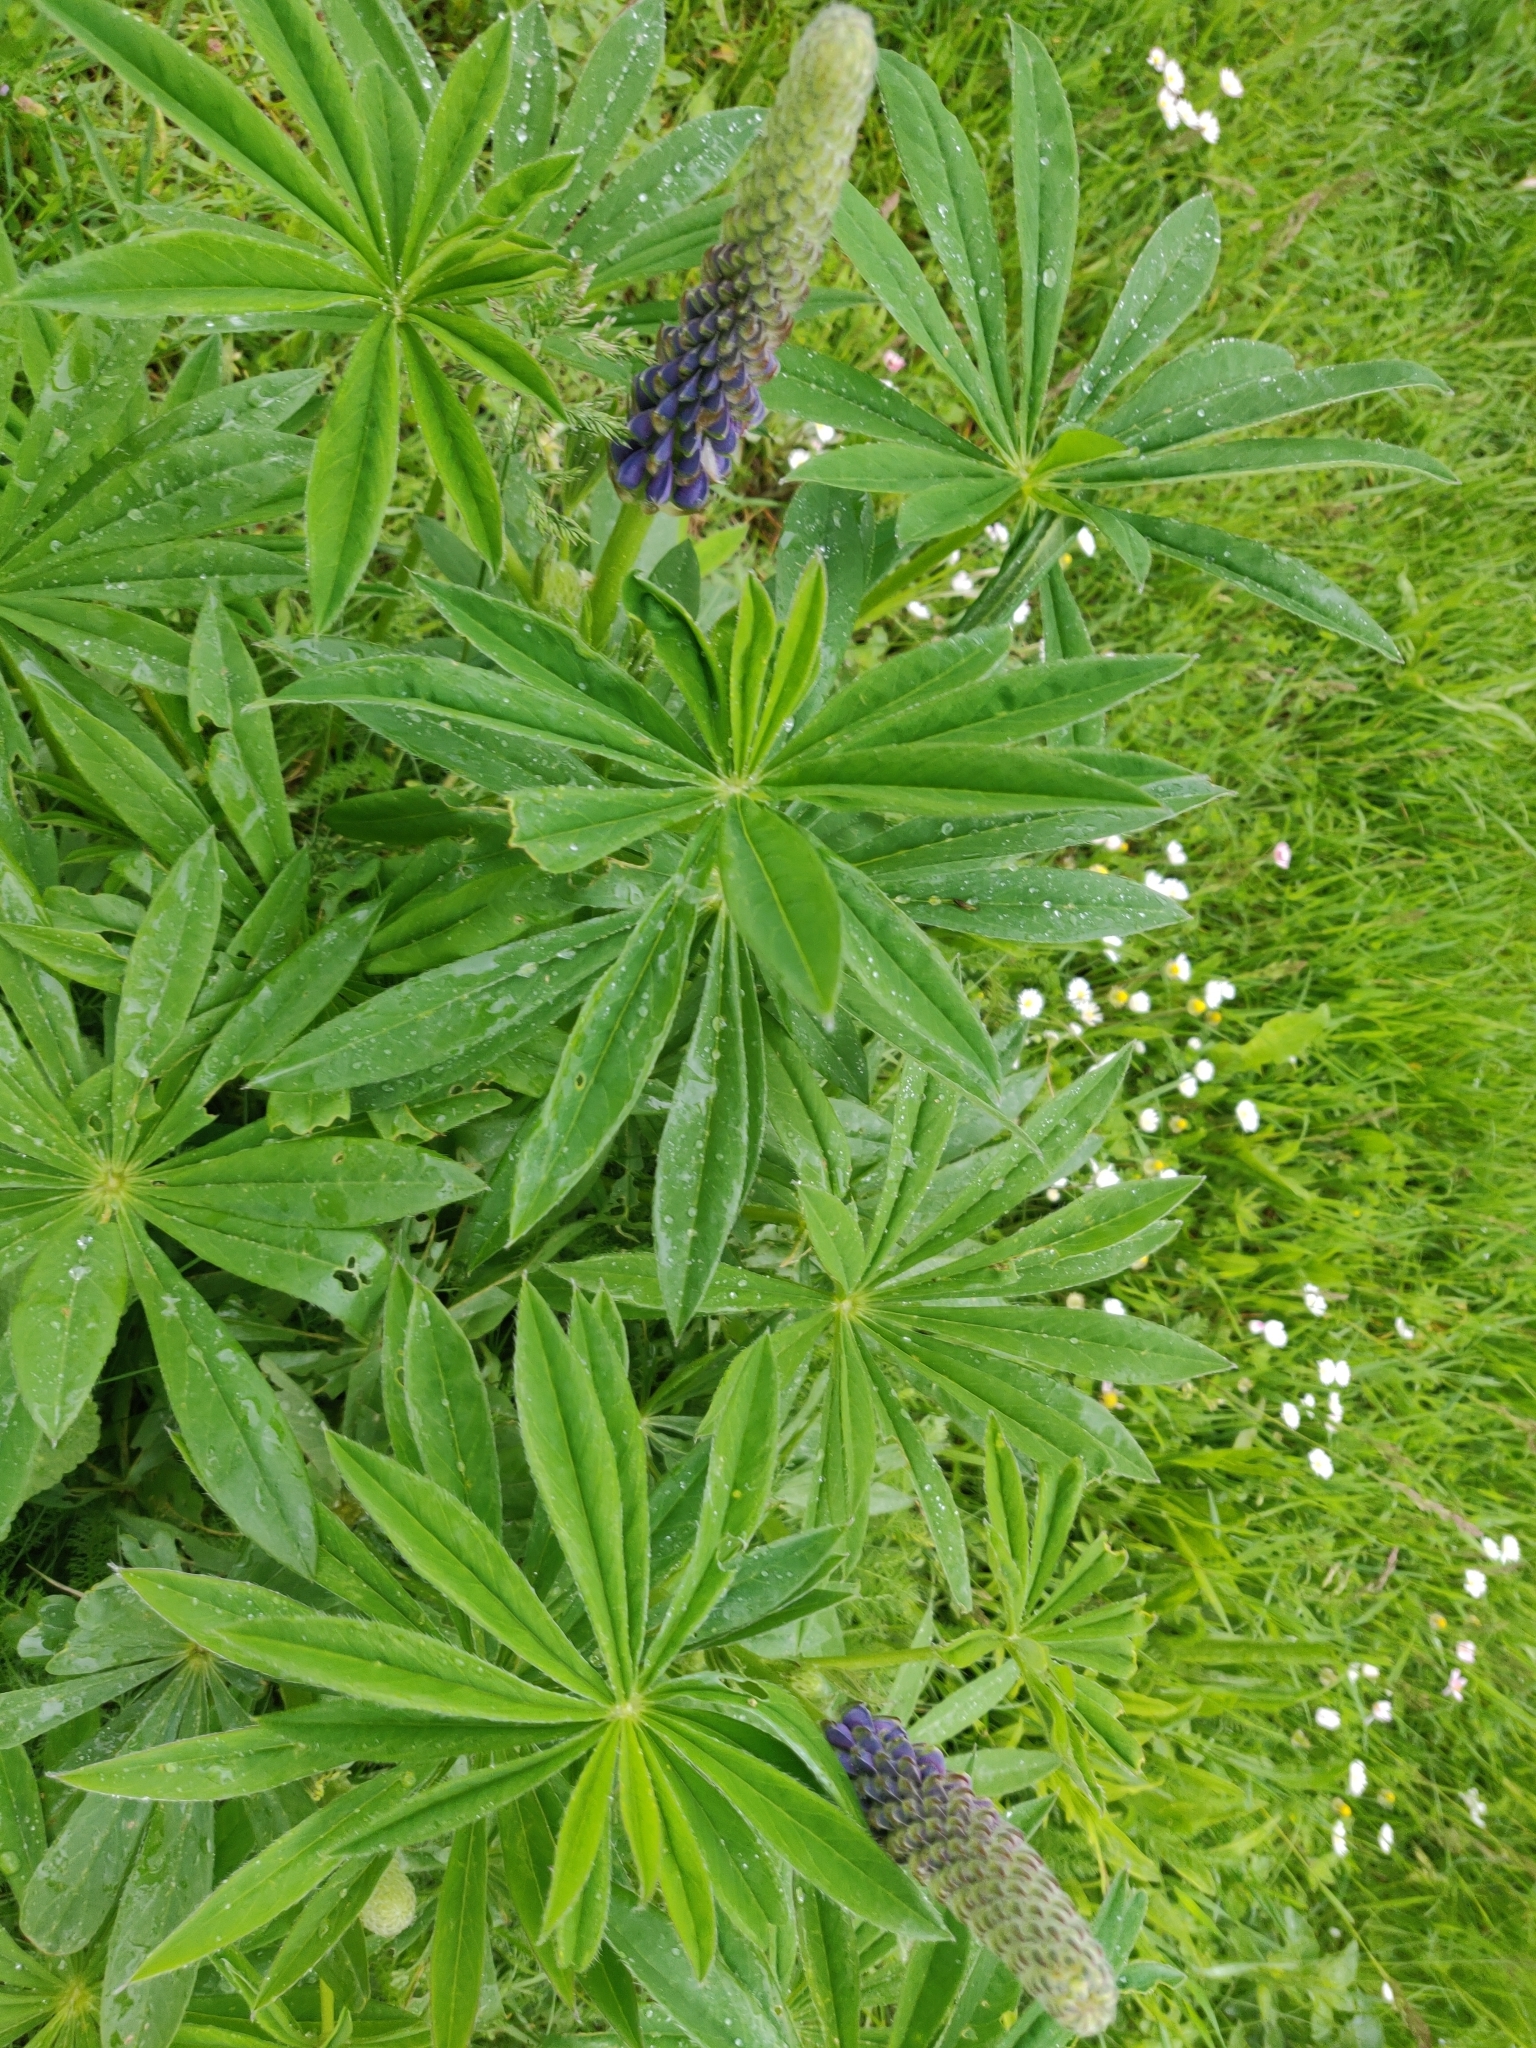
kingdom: Plantae
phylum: Tracheophyta
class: Magnoliopsida
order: Fabales
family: Fabaceae
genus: Lupinus
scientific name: Lupinus polyphyllus
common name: Garden lupin
